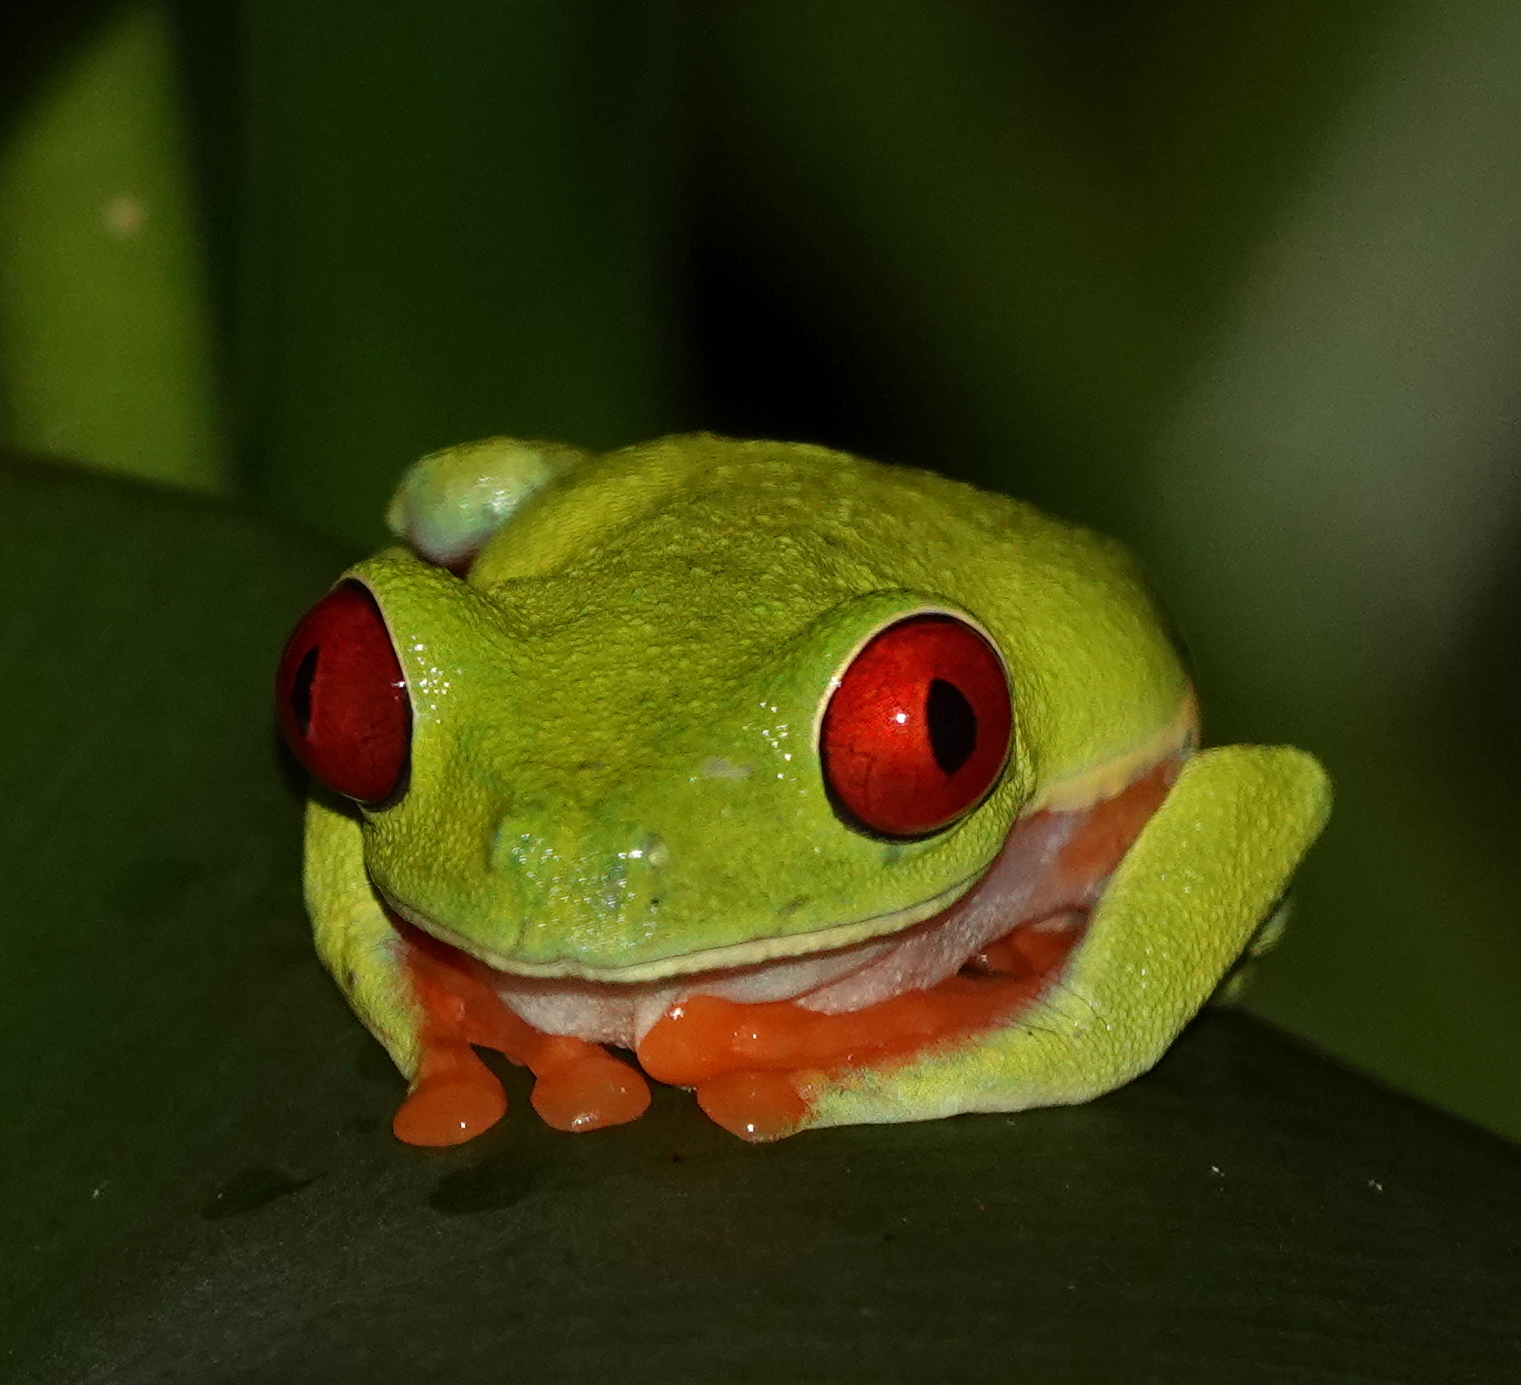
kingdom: Animalia
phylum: Chordata
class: Amphibia
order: Anura
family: Phyllomedusidae
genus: Agalychnis
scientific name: Agalychnis callidryas
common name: Red-eyed treefrog
